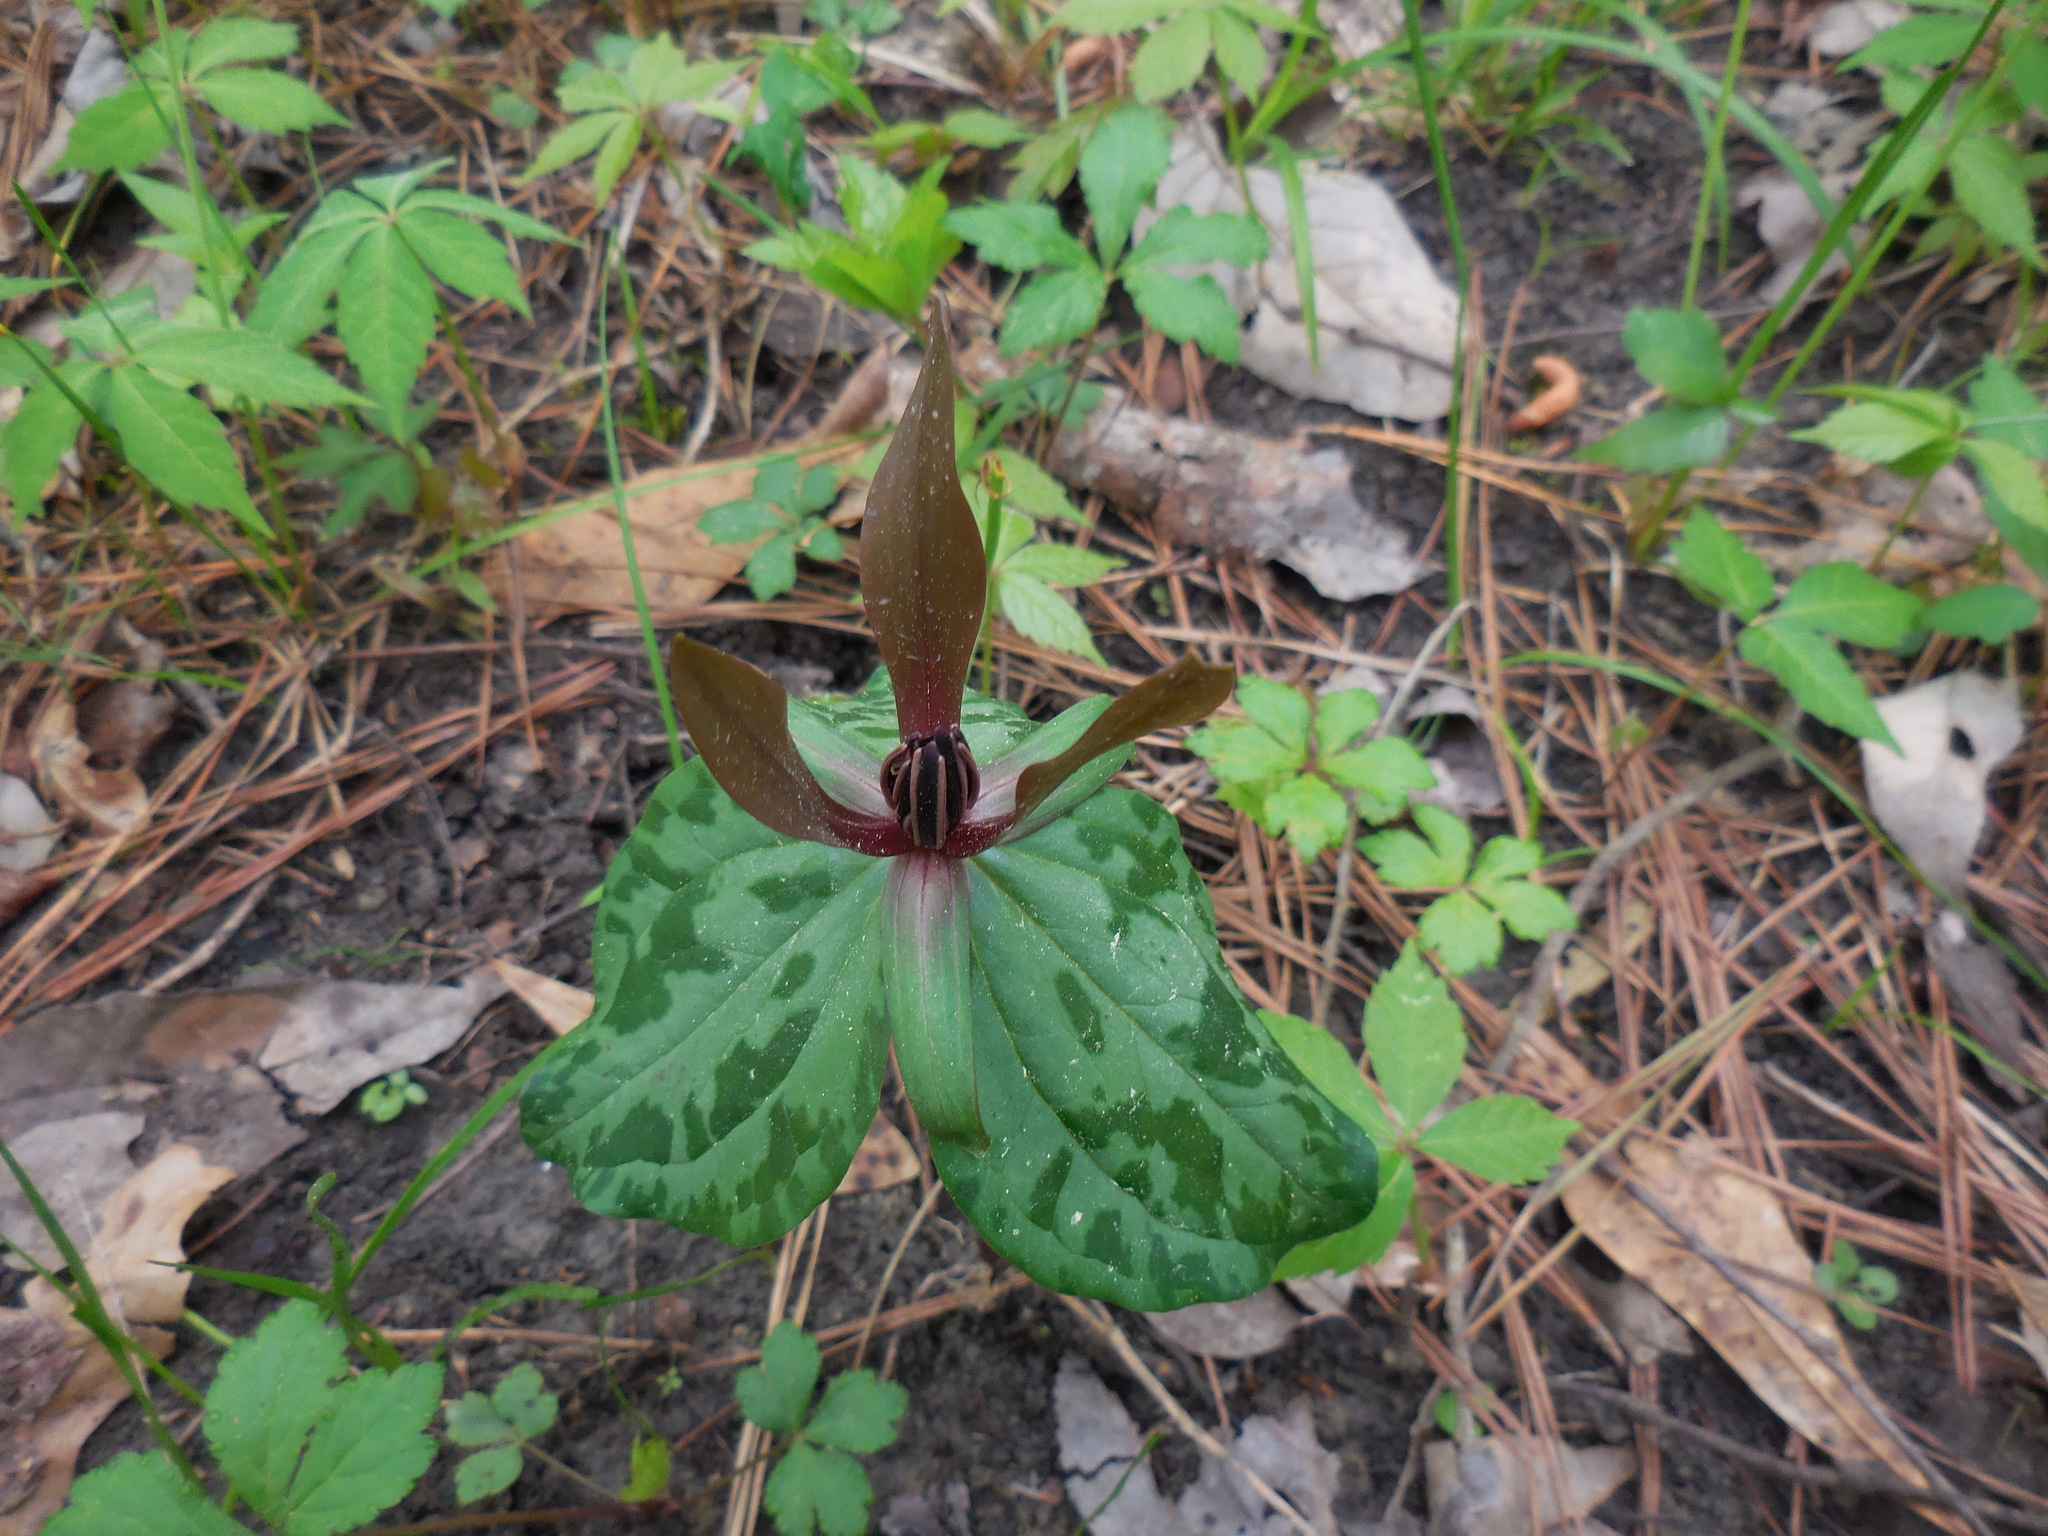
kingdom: Plantae
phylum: Tracheophyta
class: Liliopsida
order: Liliales
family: Melanthiaceae
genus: Trillium
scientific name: Trillium cuneatum
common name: Cuneate trillium
